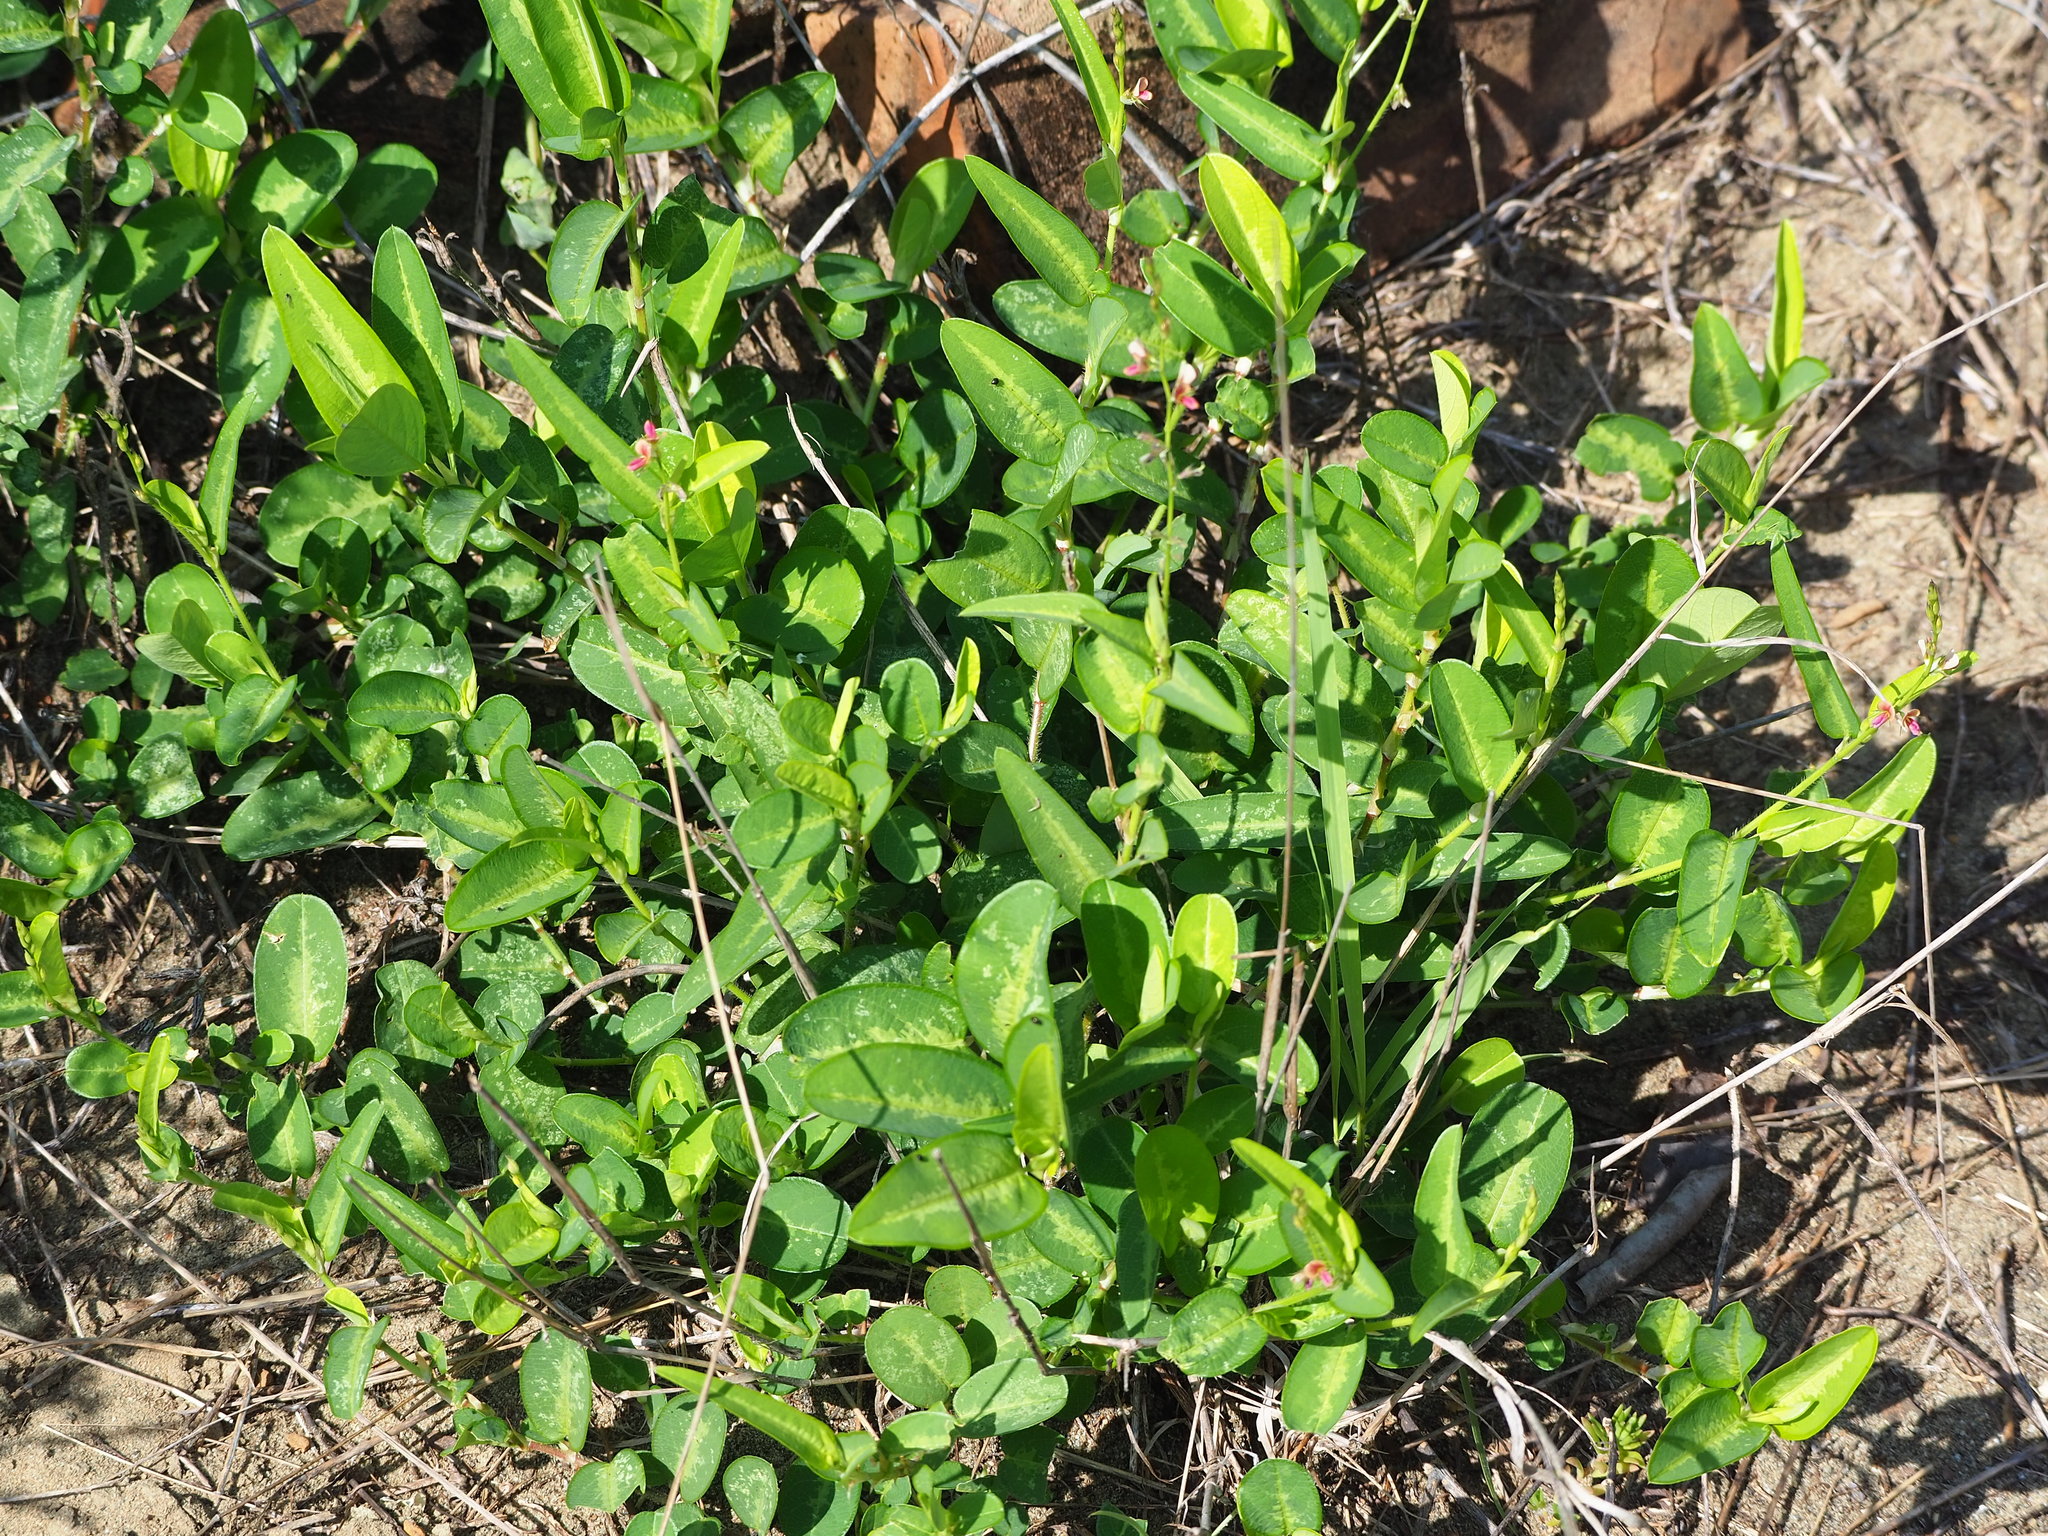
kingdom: Plantae
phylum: Tracheophyta
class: Magnoliopsida
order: Fabales
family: Fabaceae
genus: Alysicarpus
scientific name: Alysicarpus ovalifolius
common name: Alyce clover
